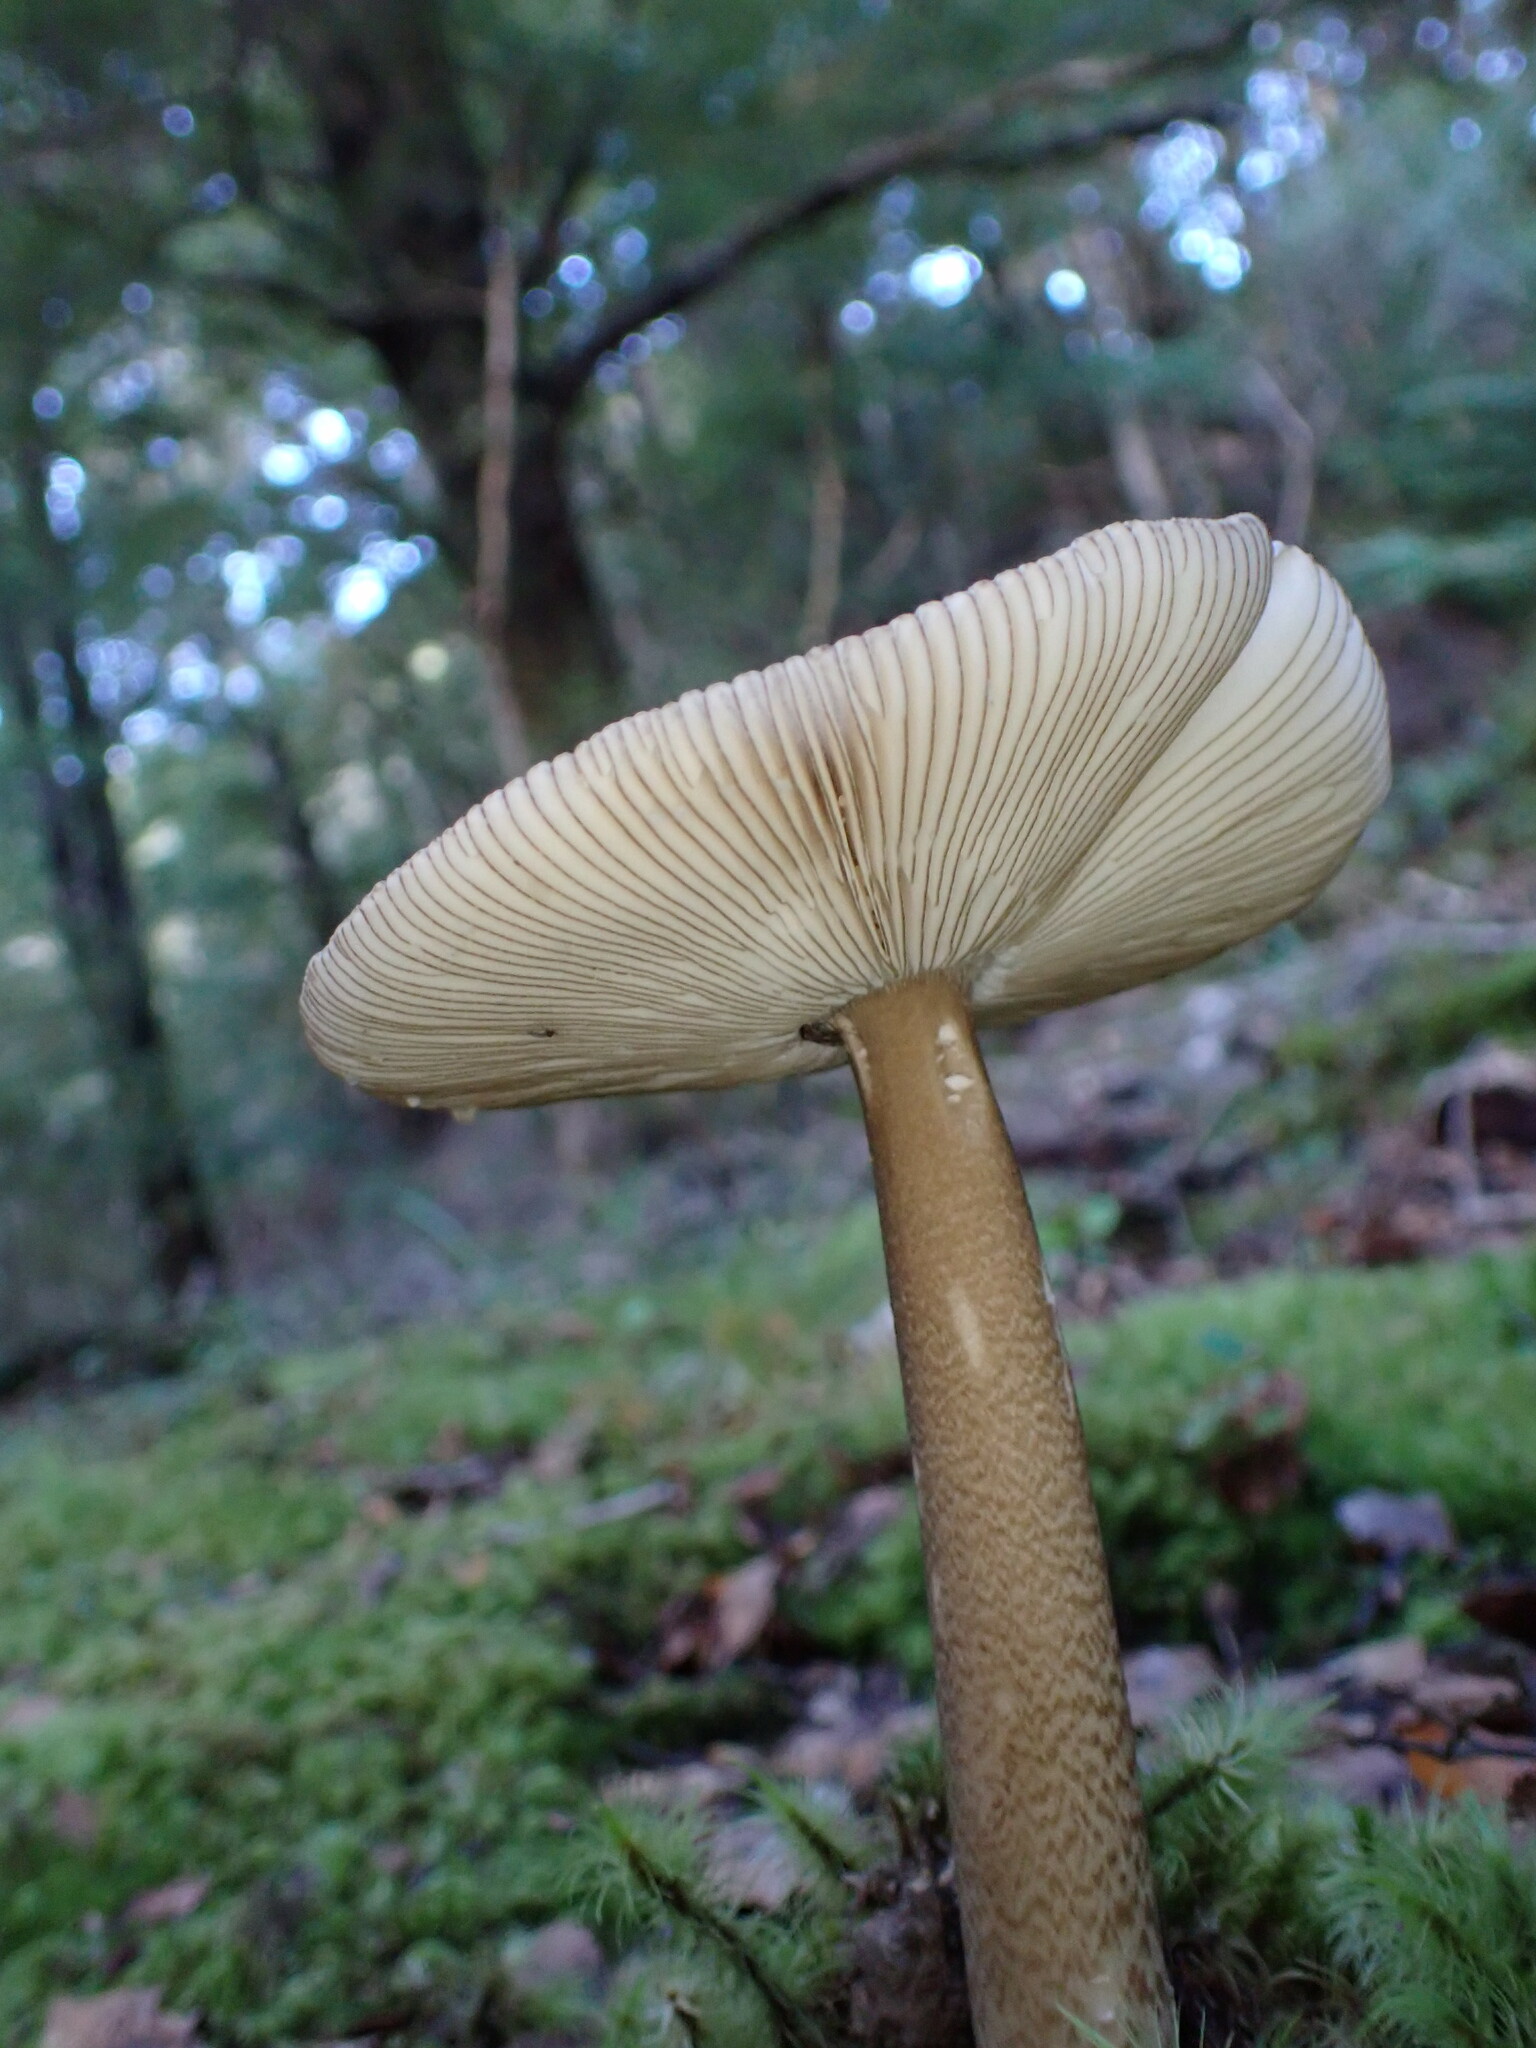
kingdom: Fungi
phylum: Basidiomycota
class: Agaricomycetes
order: Agaricales
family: Amanitaceae
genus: Amanita
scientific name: Amanita pekeoides
